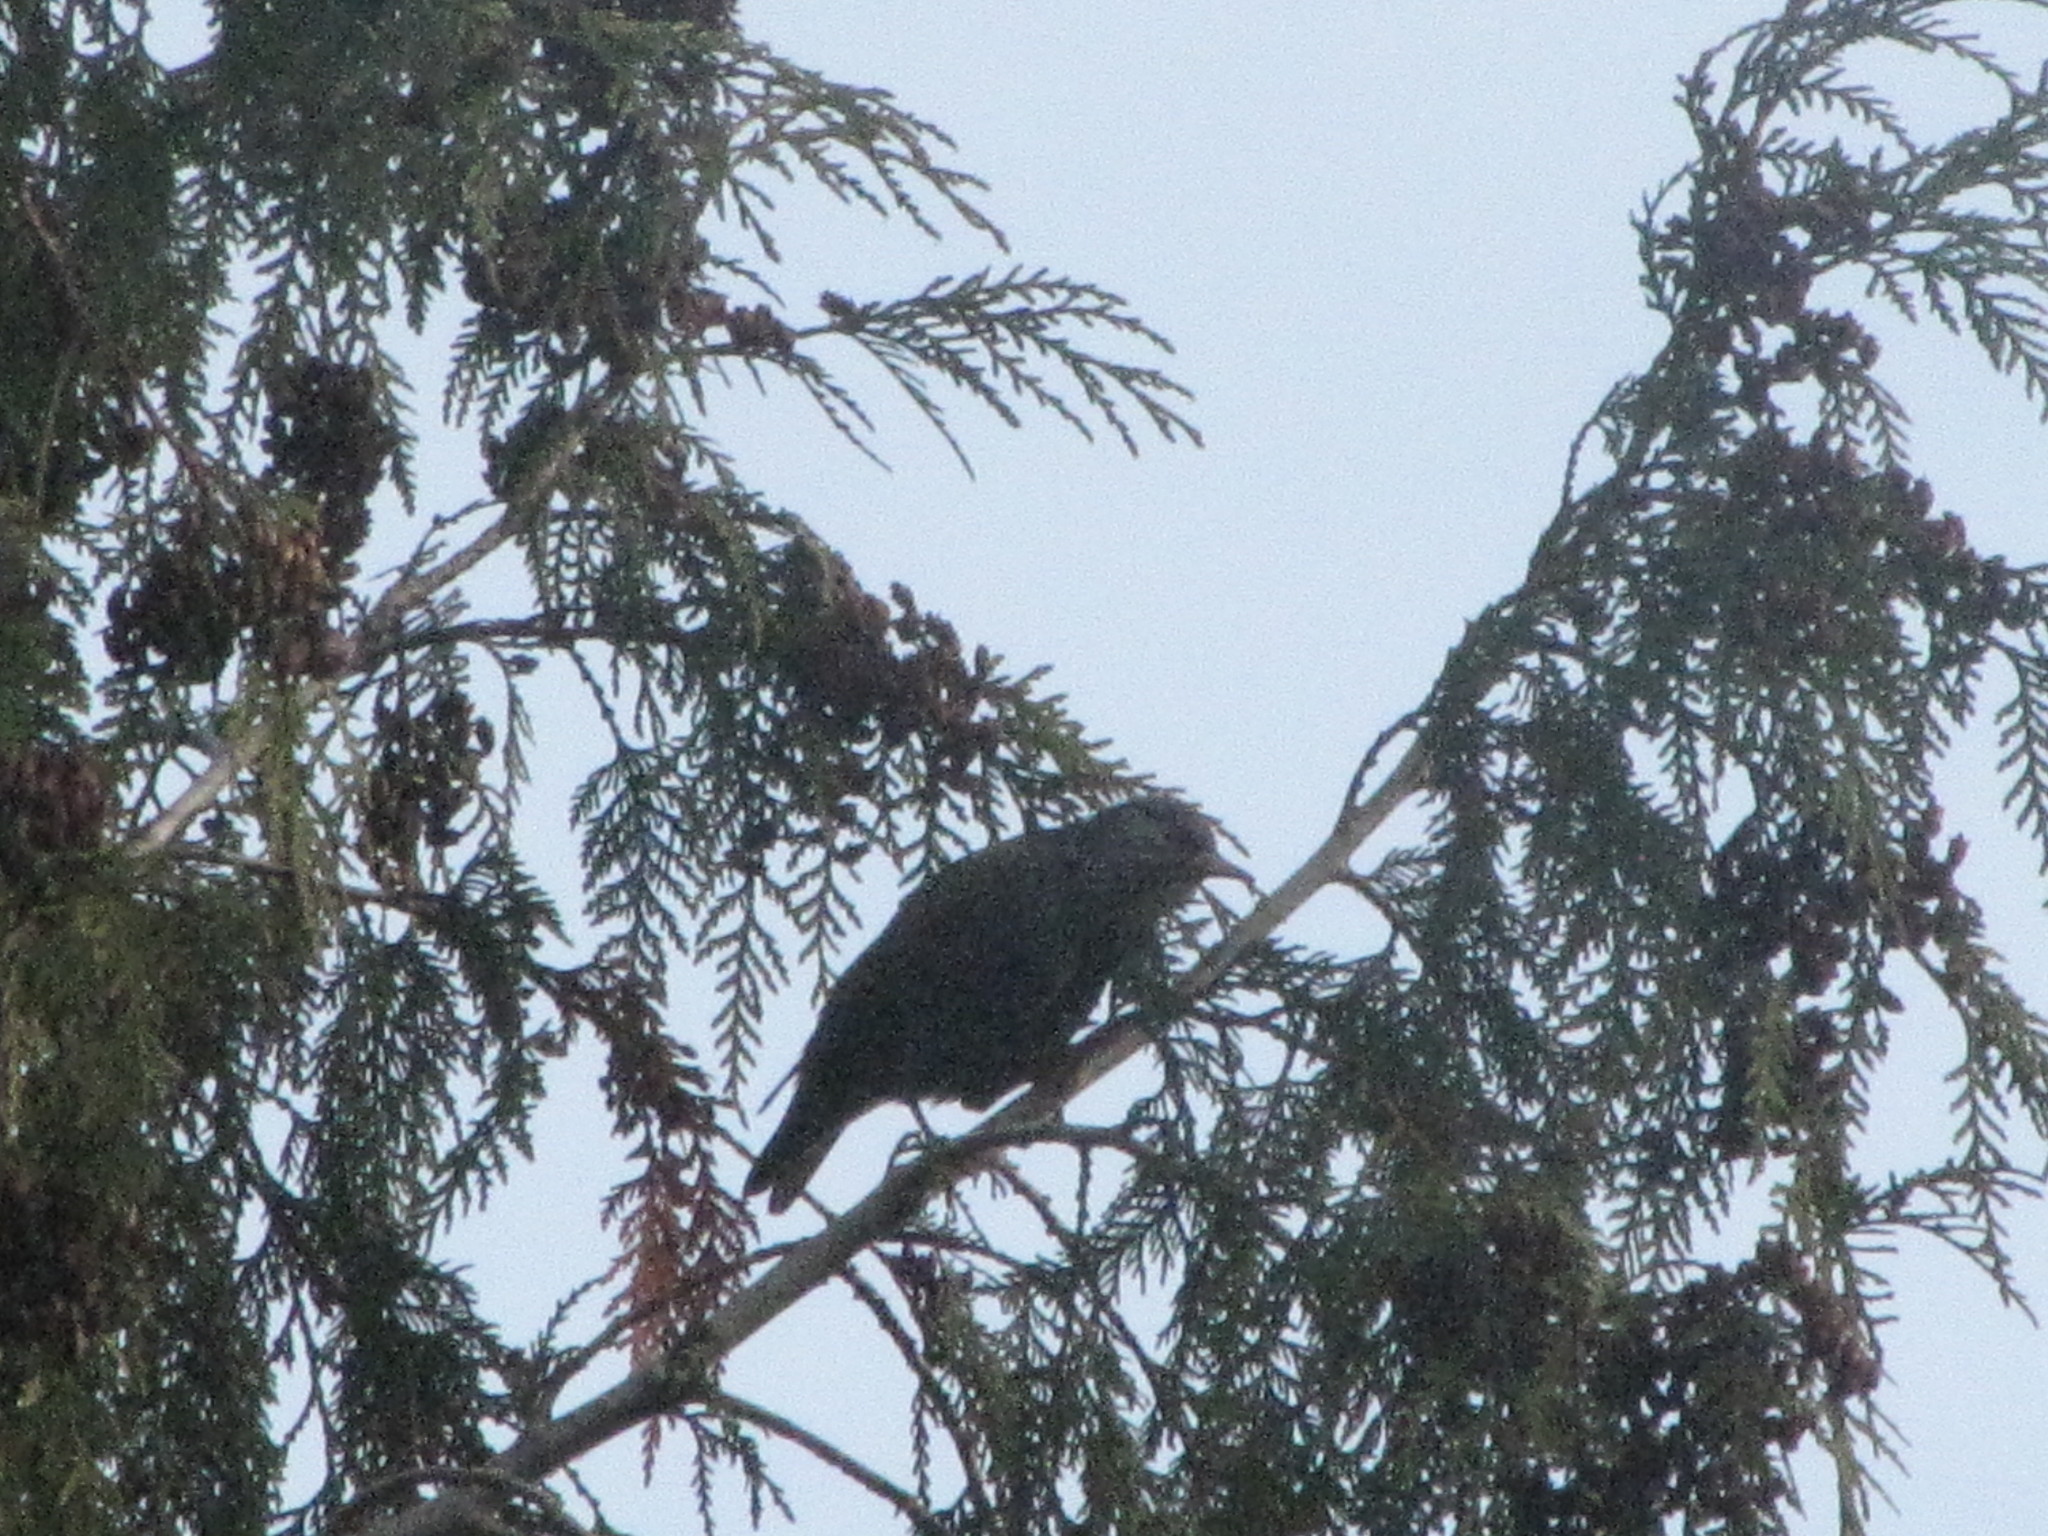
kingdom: Animalia
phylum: Chordata
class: Aves
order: Passeriformes
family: Sturnidae
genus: Sturnus
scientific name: Sturnus vulgaris
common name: Common starling
